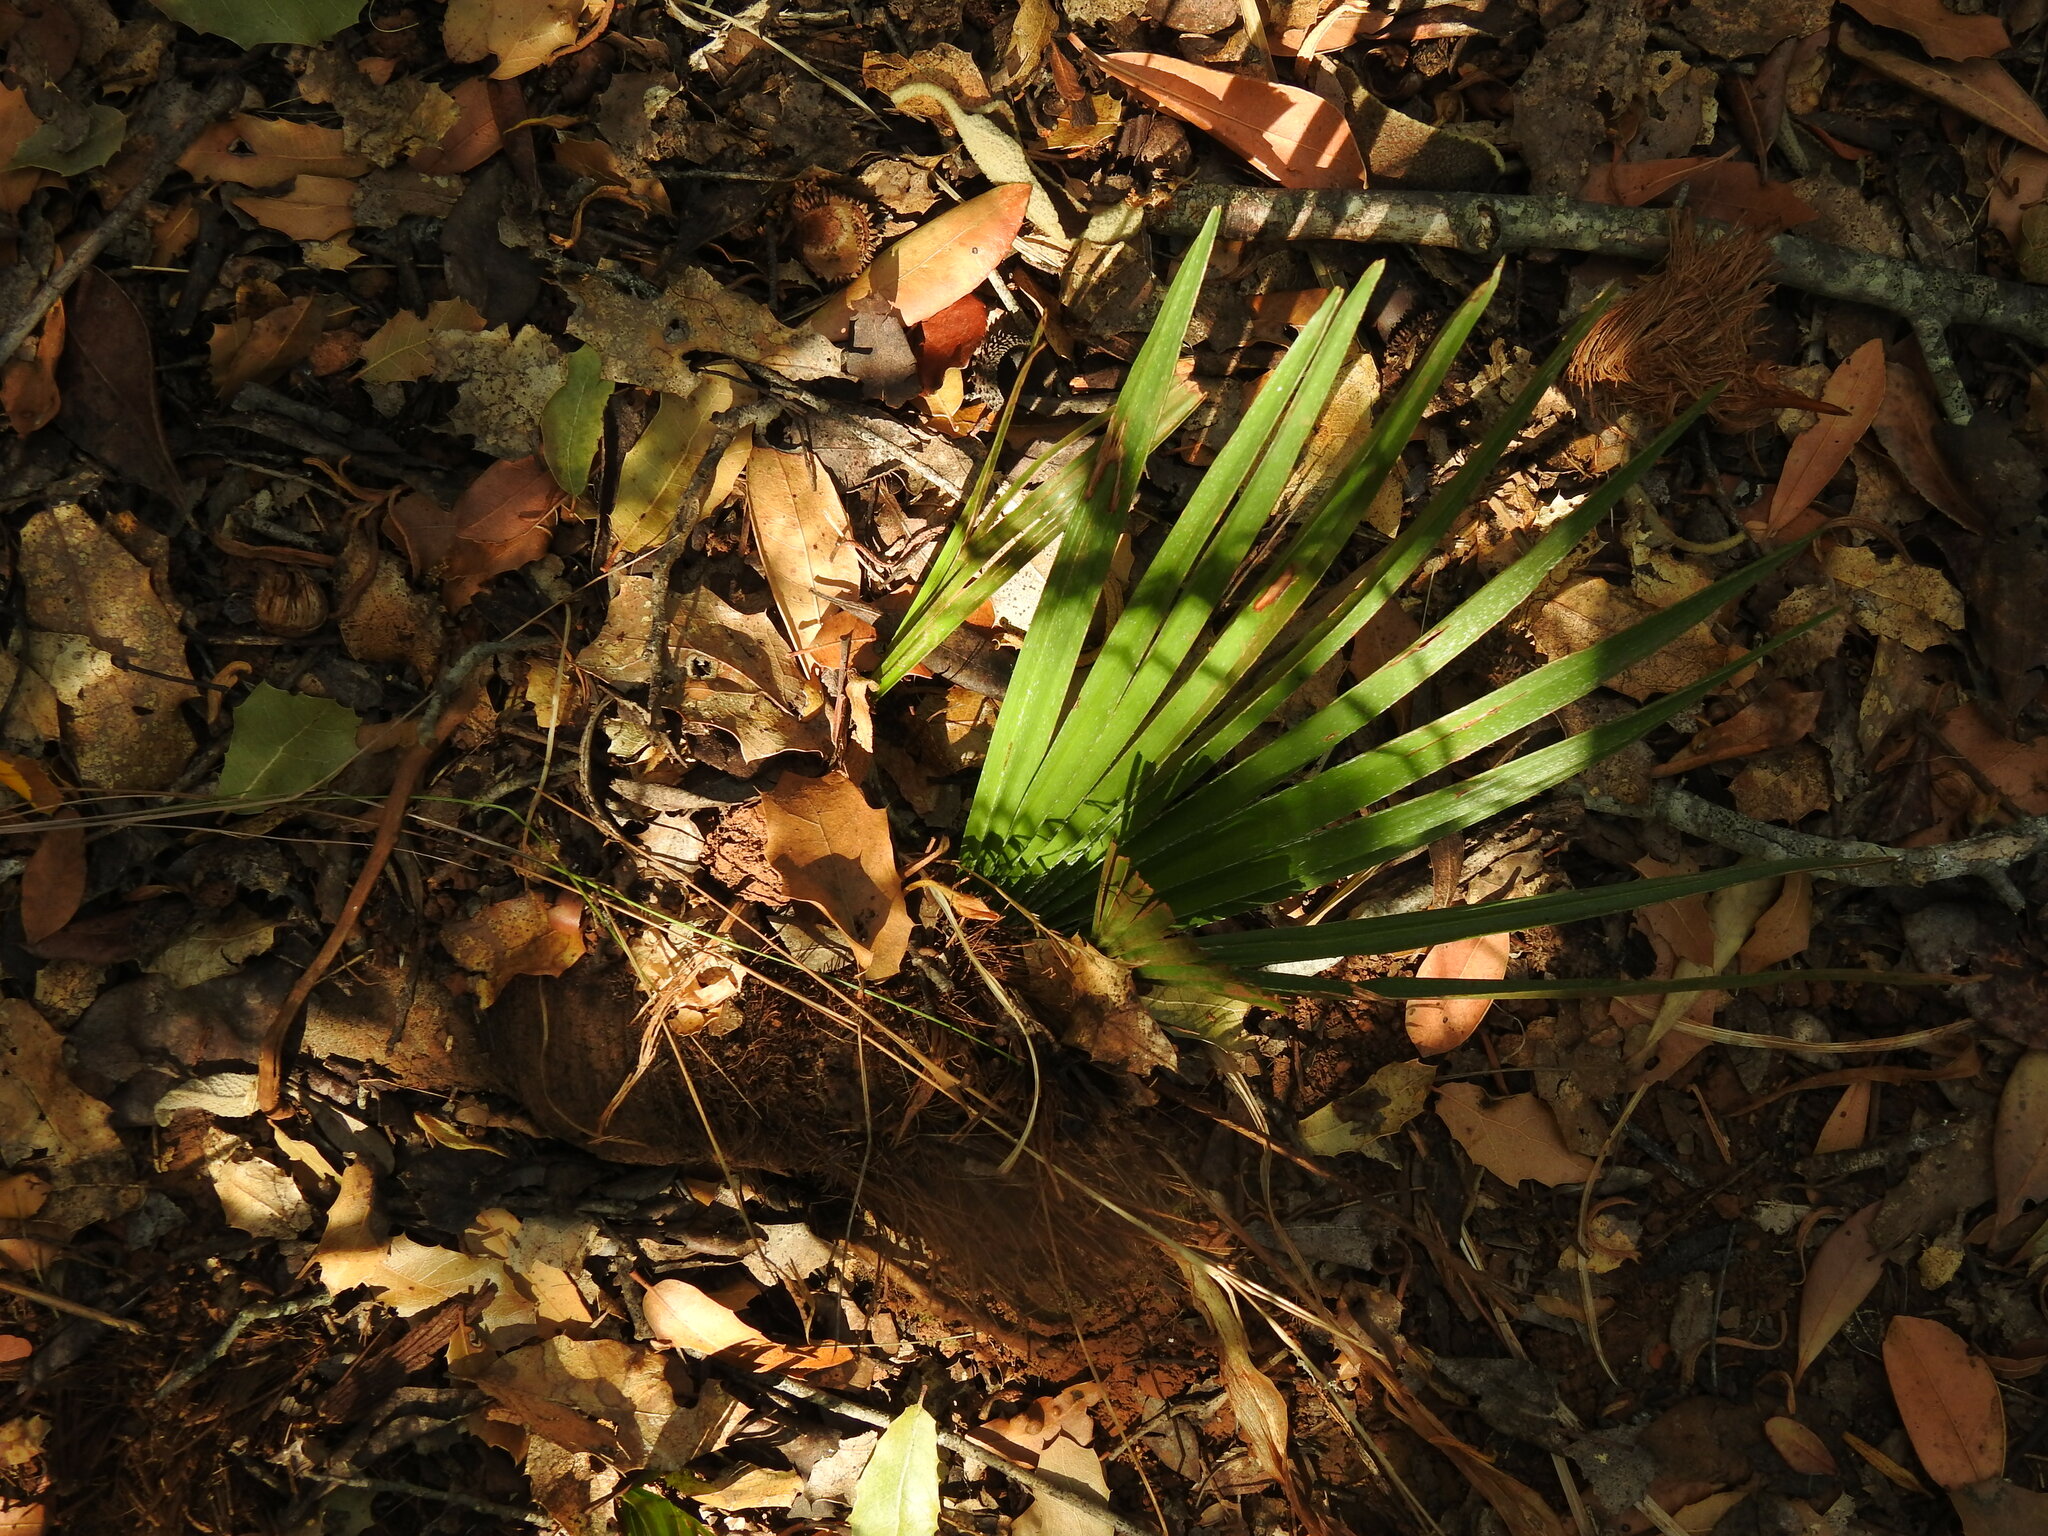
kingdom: Plantae
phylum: Tracheophyta
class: Liliopsida
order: Arecales
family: Arecaceae
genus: Chamaerops
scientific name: Chamaerops humilis
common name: Dwarf fan palm
